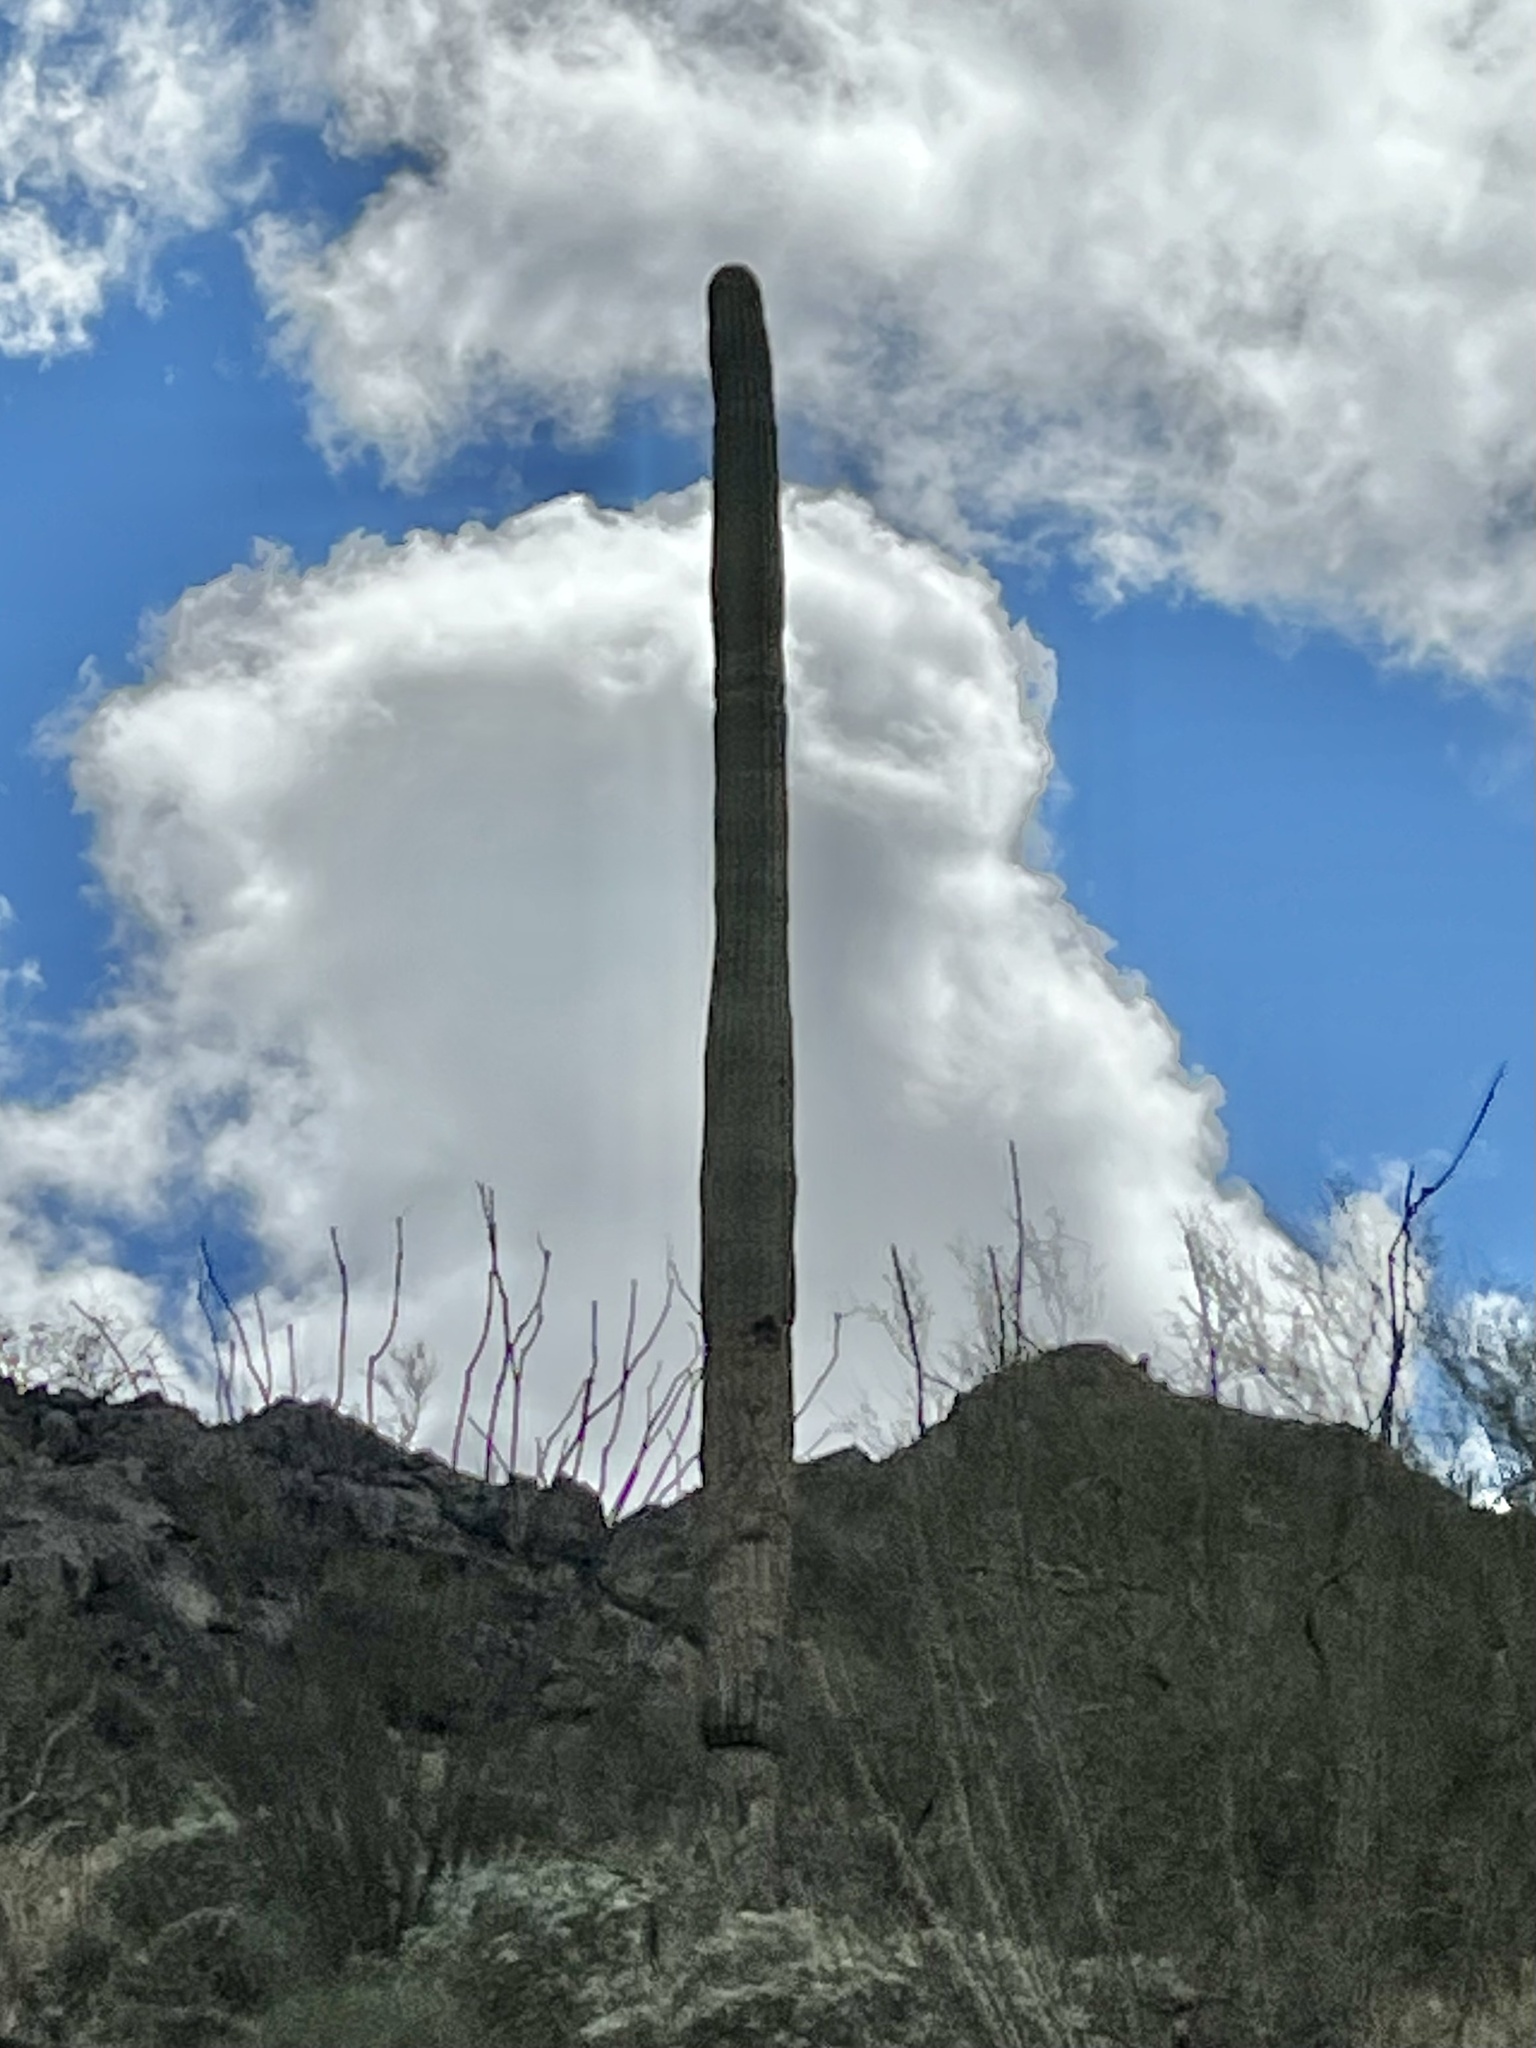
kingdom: Plantae
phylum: Tracheophyta
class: Magnoliopsida
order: Caryophyllales
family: Cactaceae
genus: Carnegiea
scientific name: Carnegiea gigantea
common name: Saguaro
